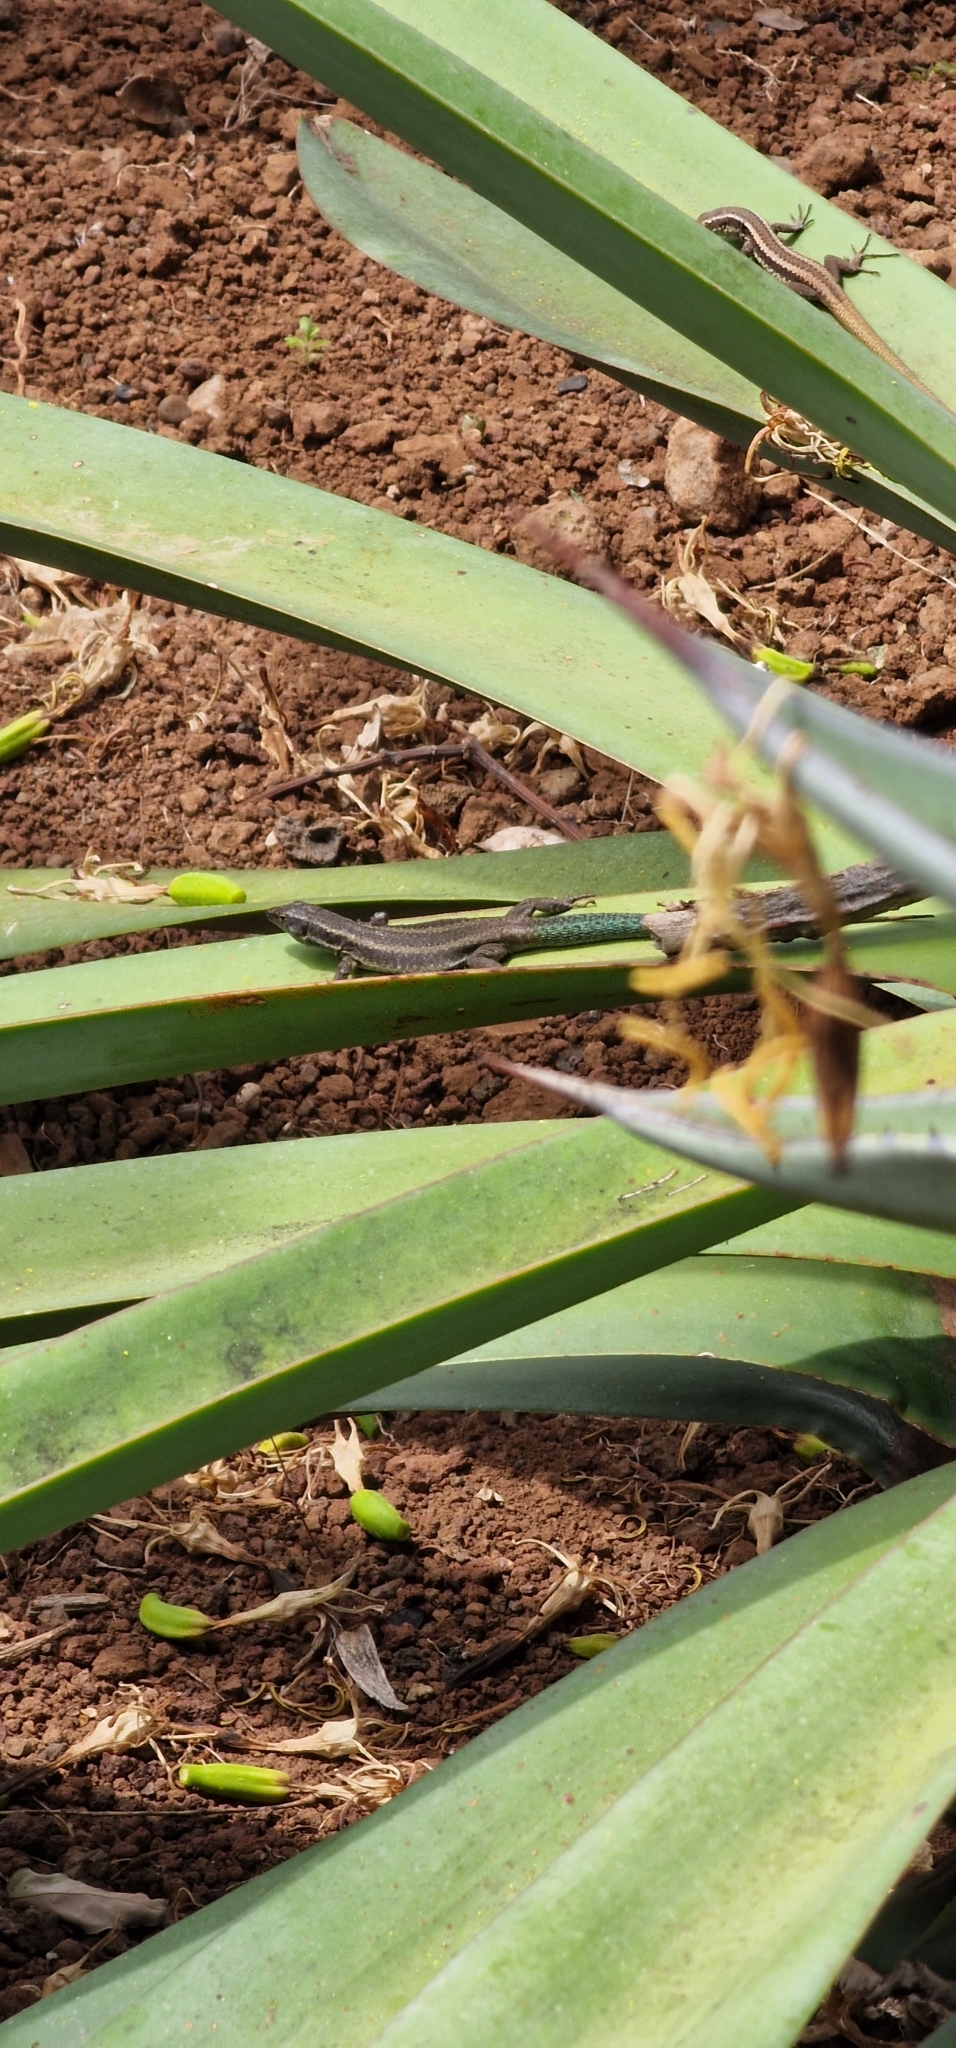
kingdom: Animalia
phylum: Chordata
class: Squamata
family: Lacertidae
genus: Teira
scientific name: Teira dugesii
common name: Madeira lizard
